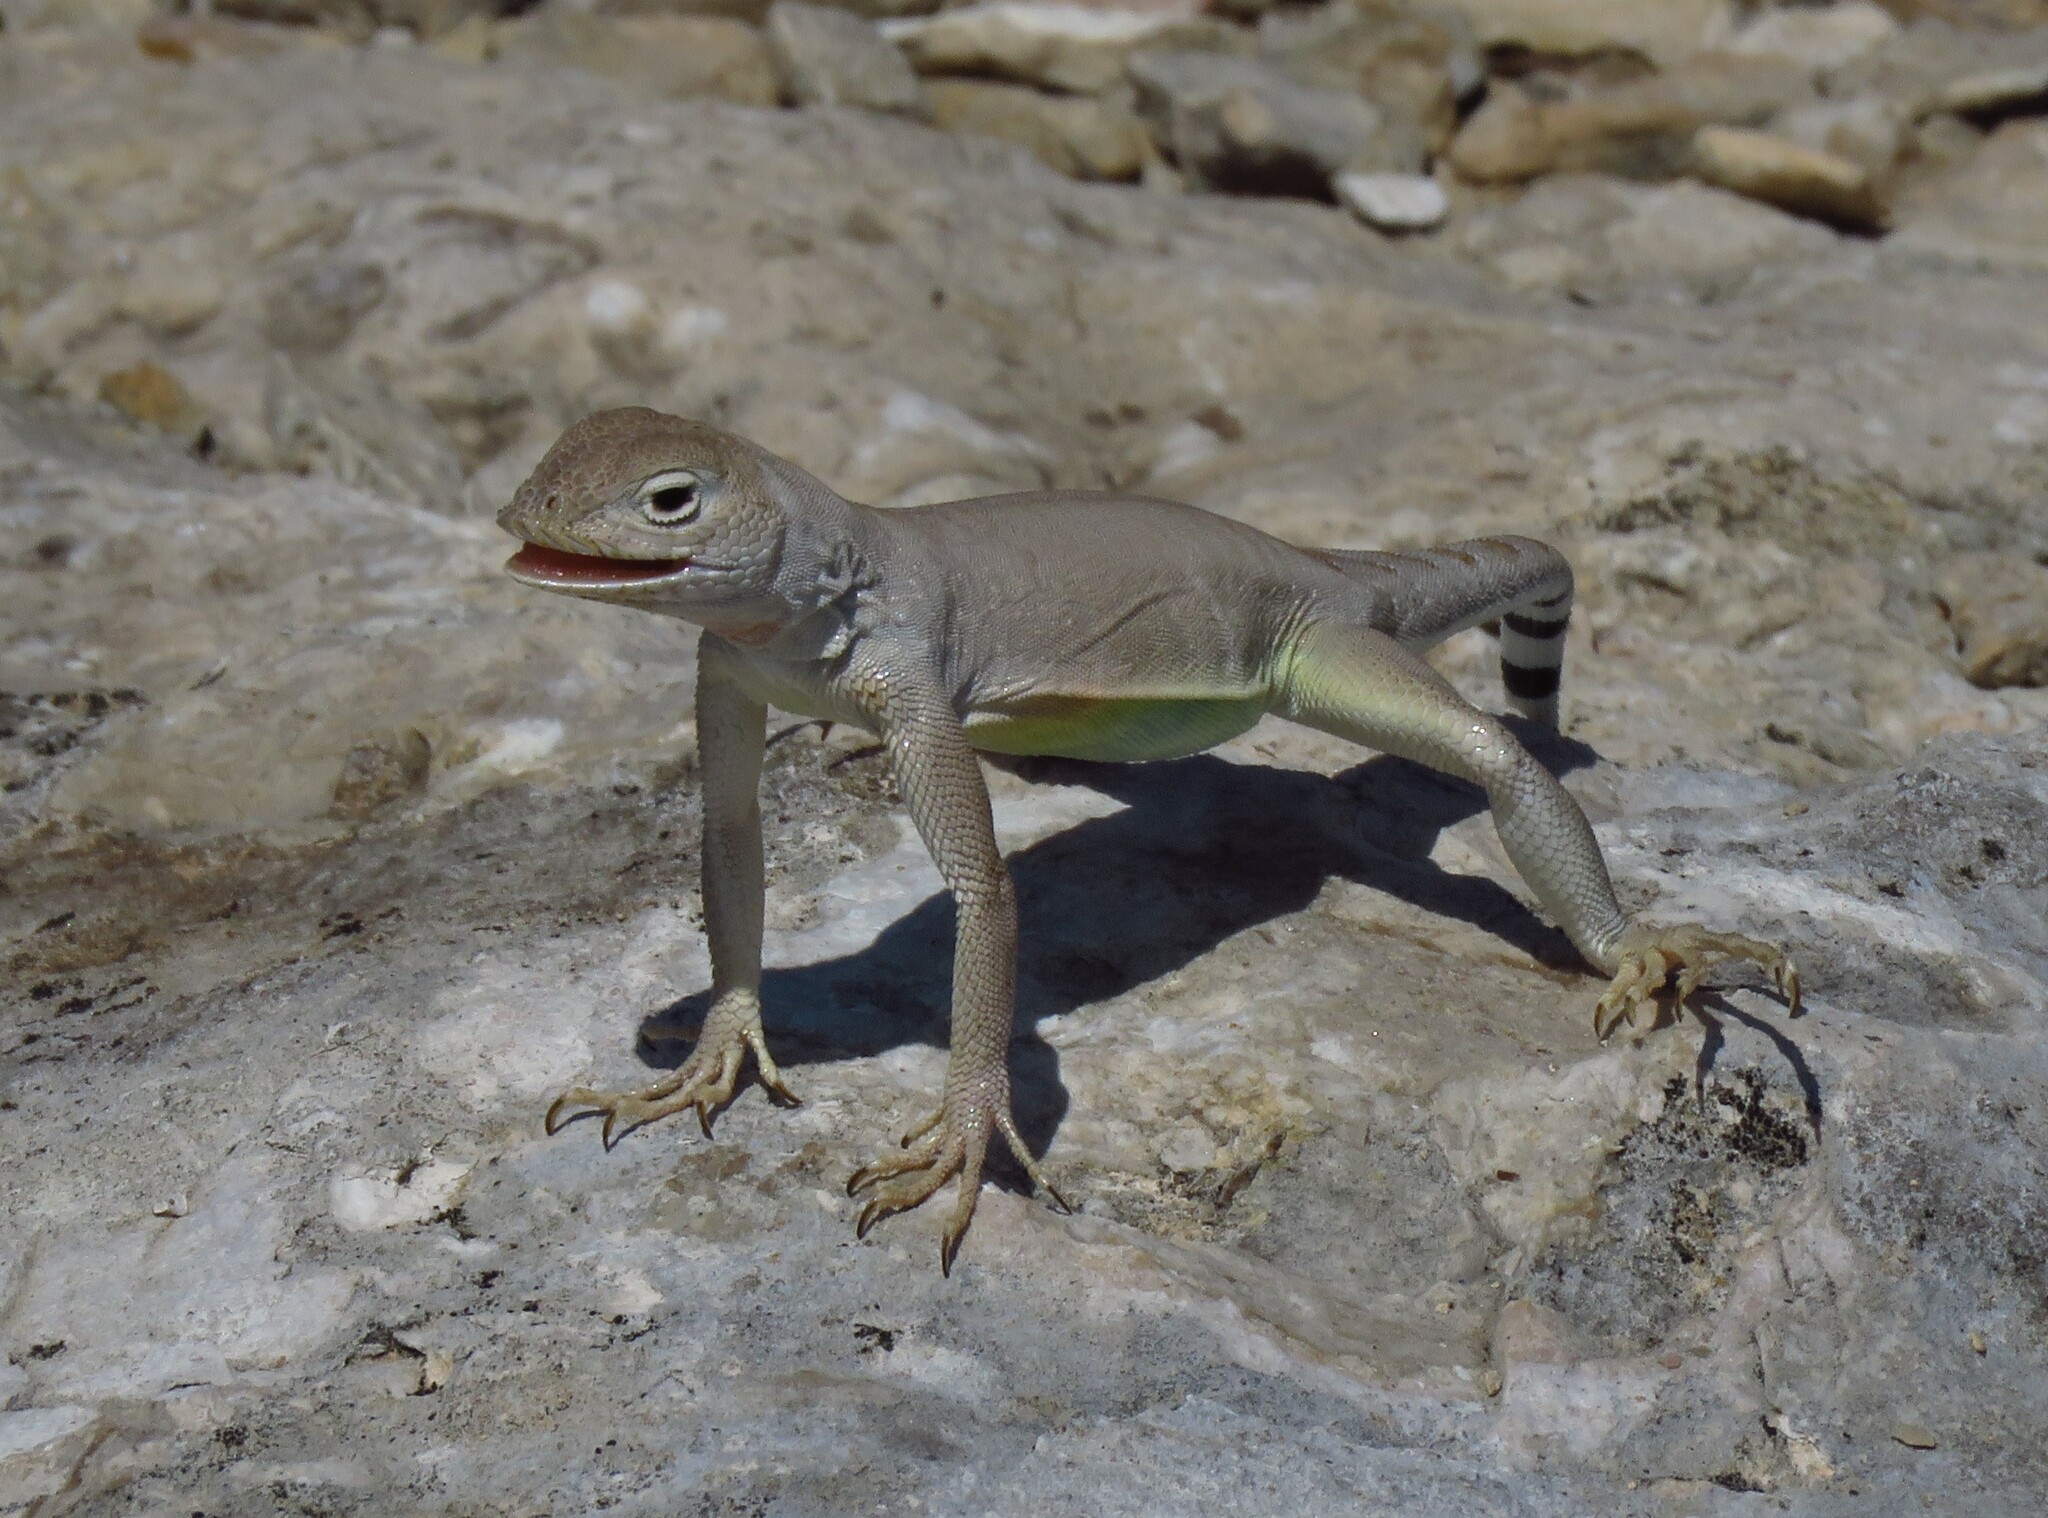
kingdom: Animalia
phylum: Chordata
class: Squamata
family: Phrynosomatidae
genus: Cophosaurus
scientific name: Cophosaurus texanus
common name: Greater earless lizard
